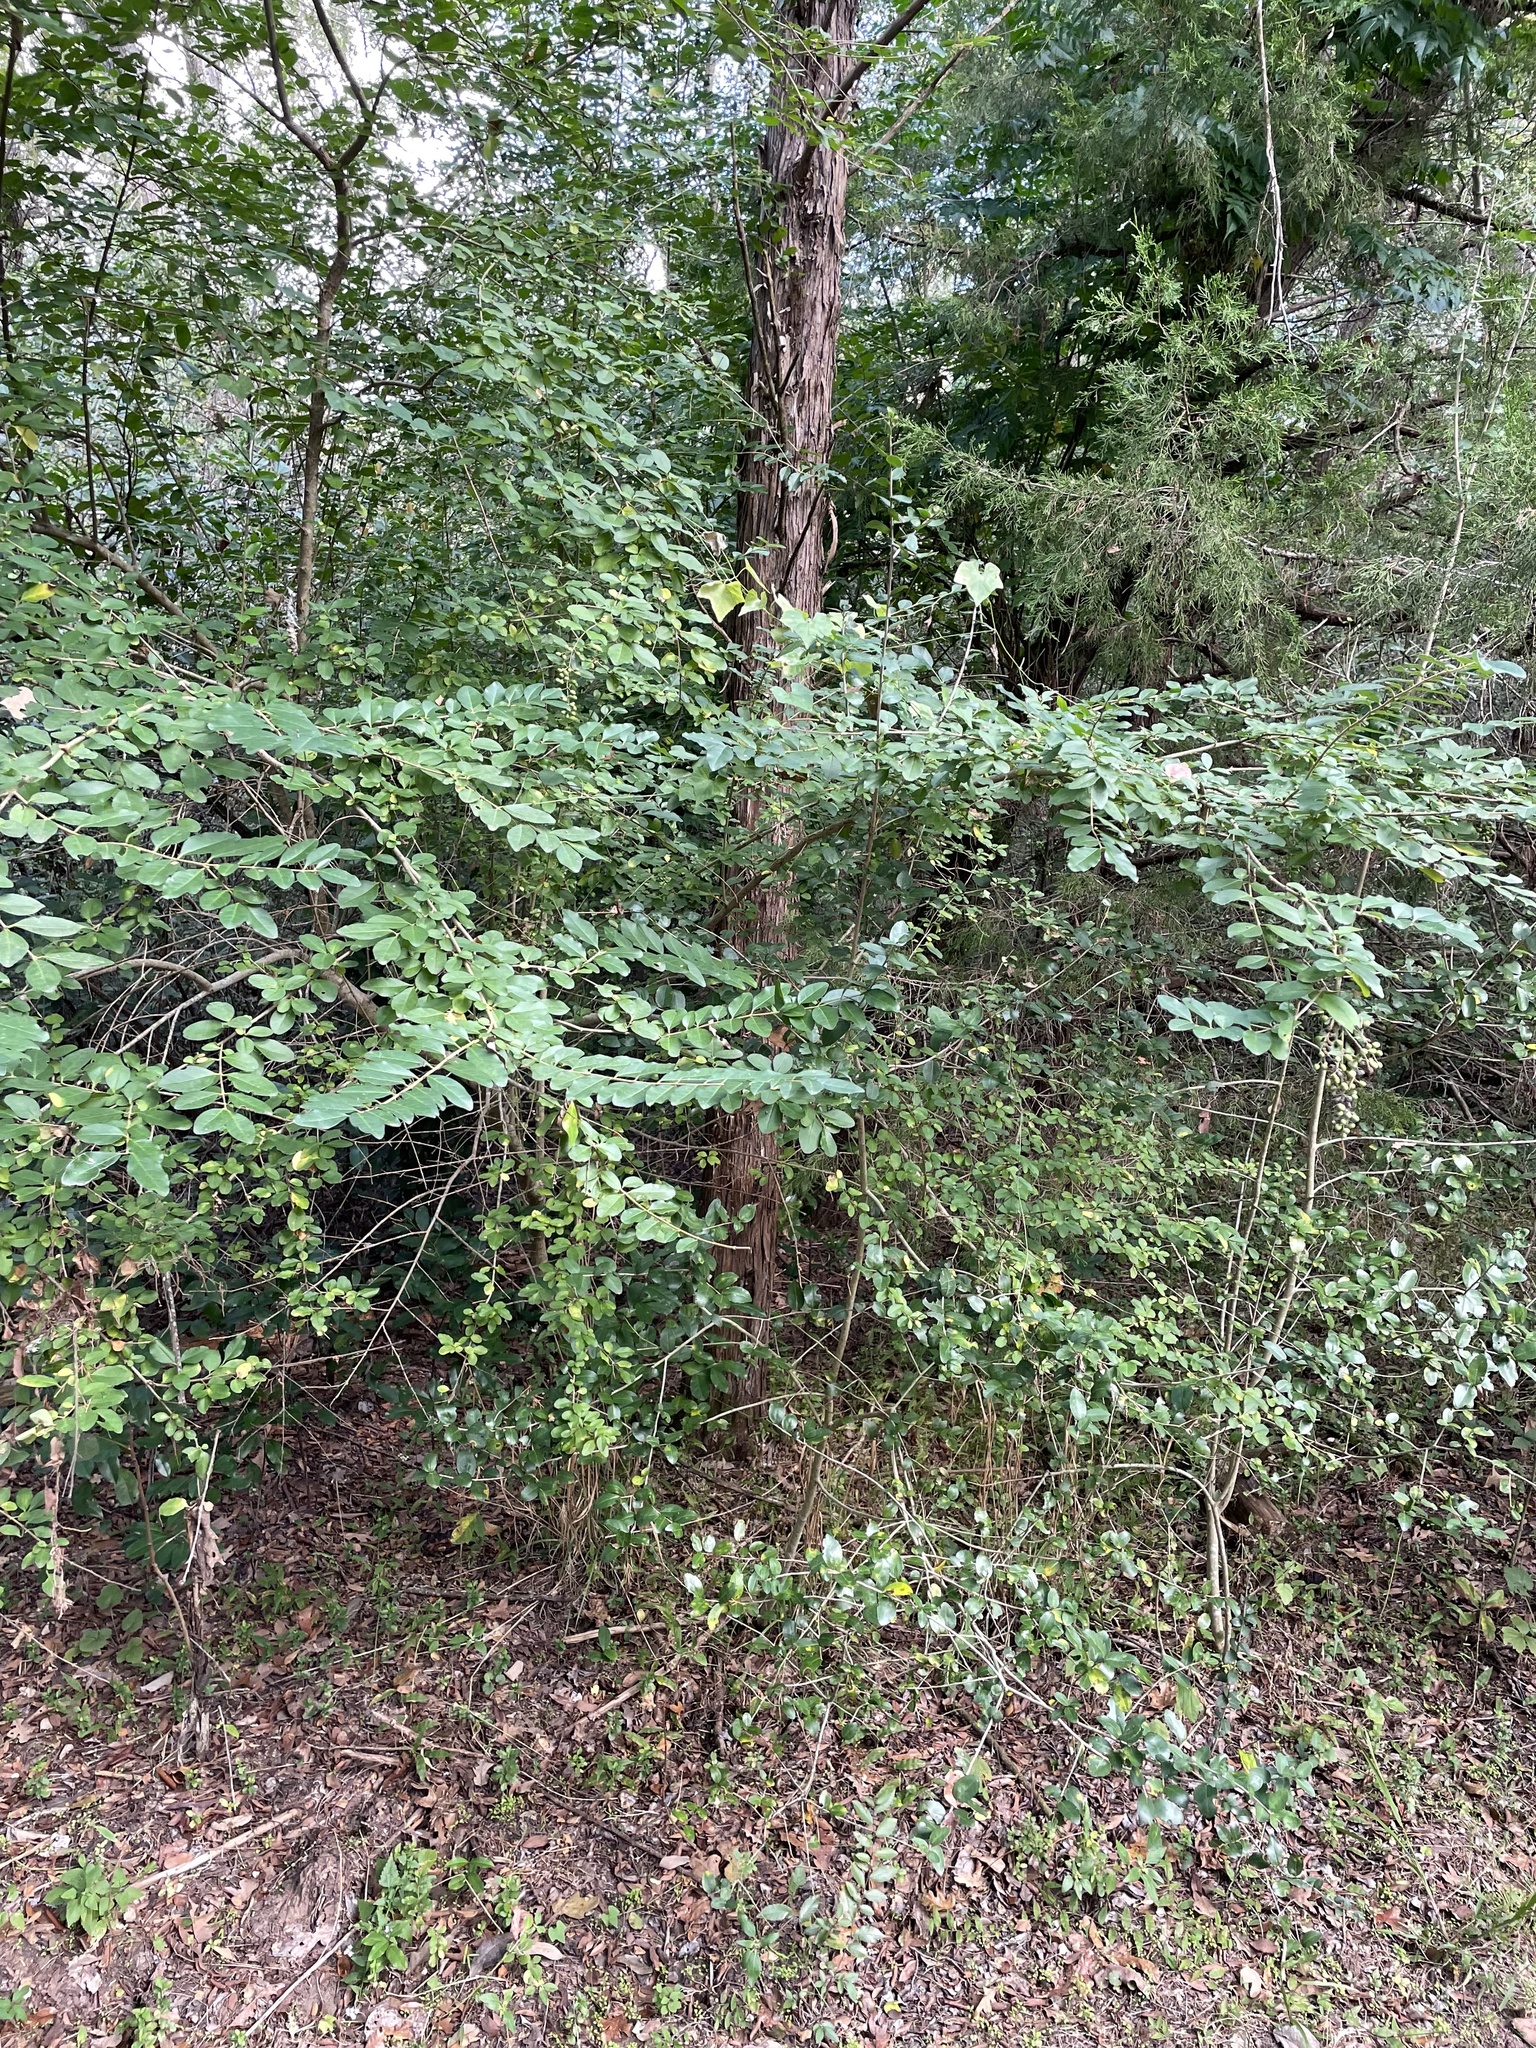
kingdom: Plantae
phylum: Tracheophyta
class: Magnoliopsida
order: Lamiales
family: Oleaceae
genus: Ligustrum
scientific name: Ligustrum sinense
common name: Chinese privet
